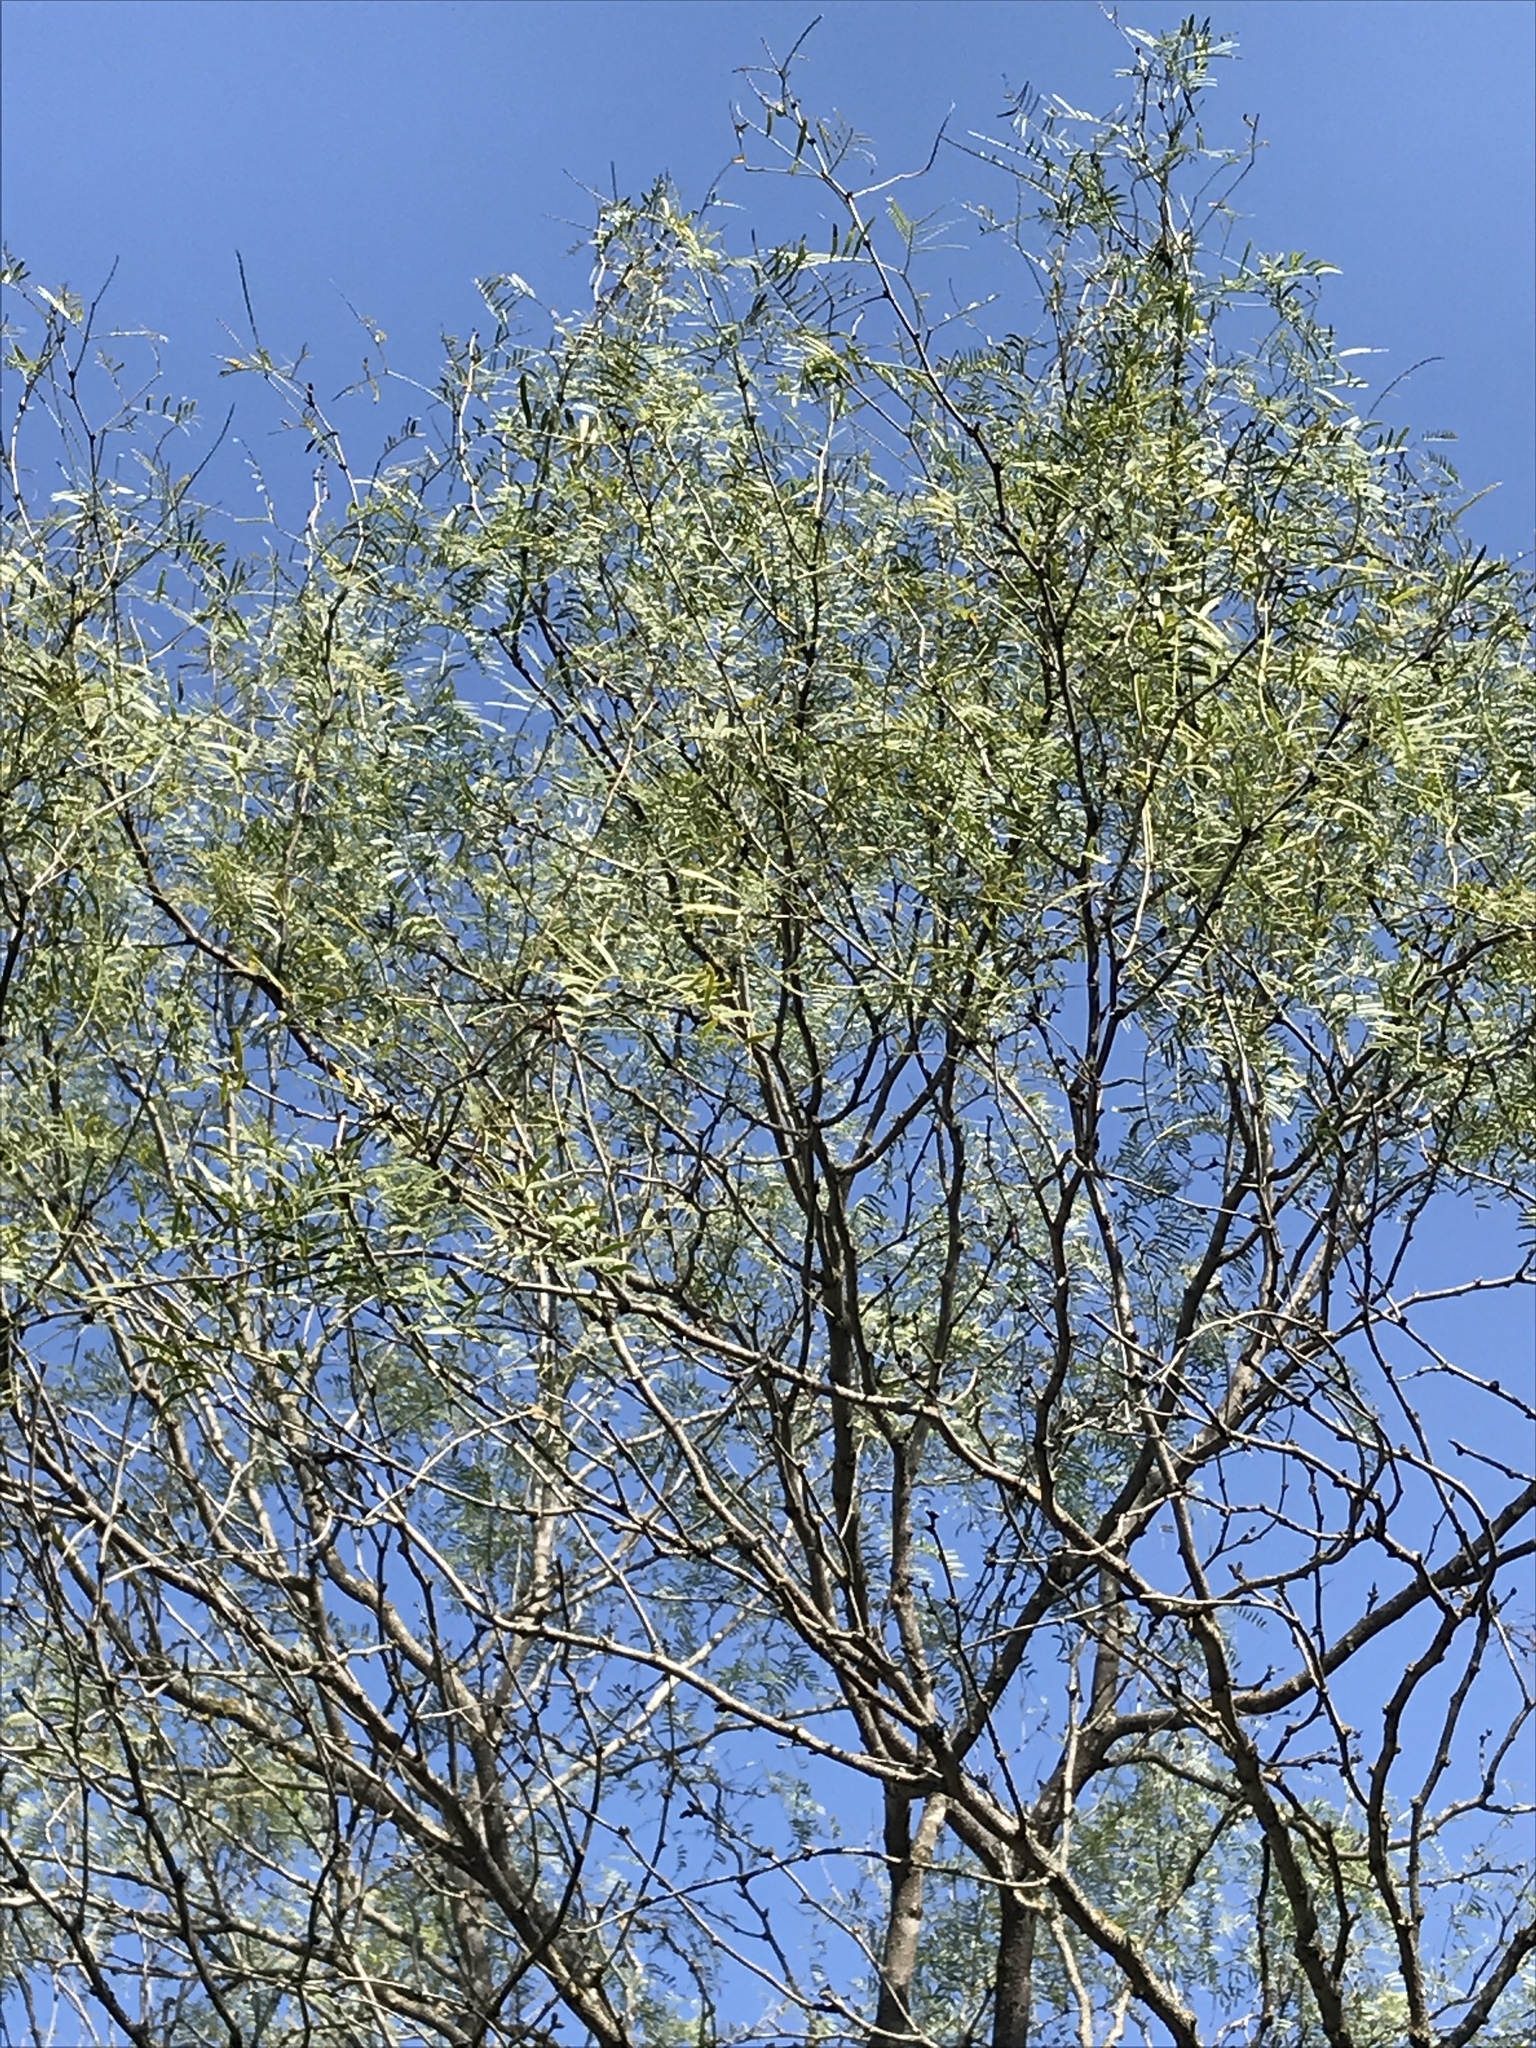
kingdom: Plantae
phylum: Tracheophyta
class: Magnoliopsida
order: Fabales
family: Fabaceae
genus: Prosopis
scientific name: Prosopis glandulosa
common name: Honey mesquite
